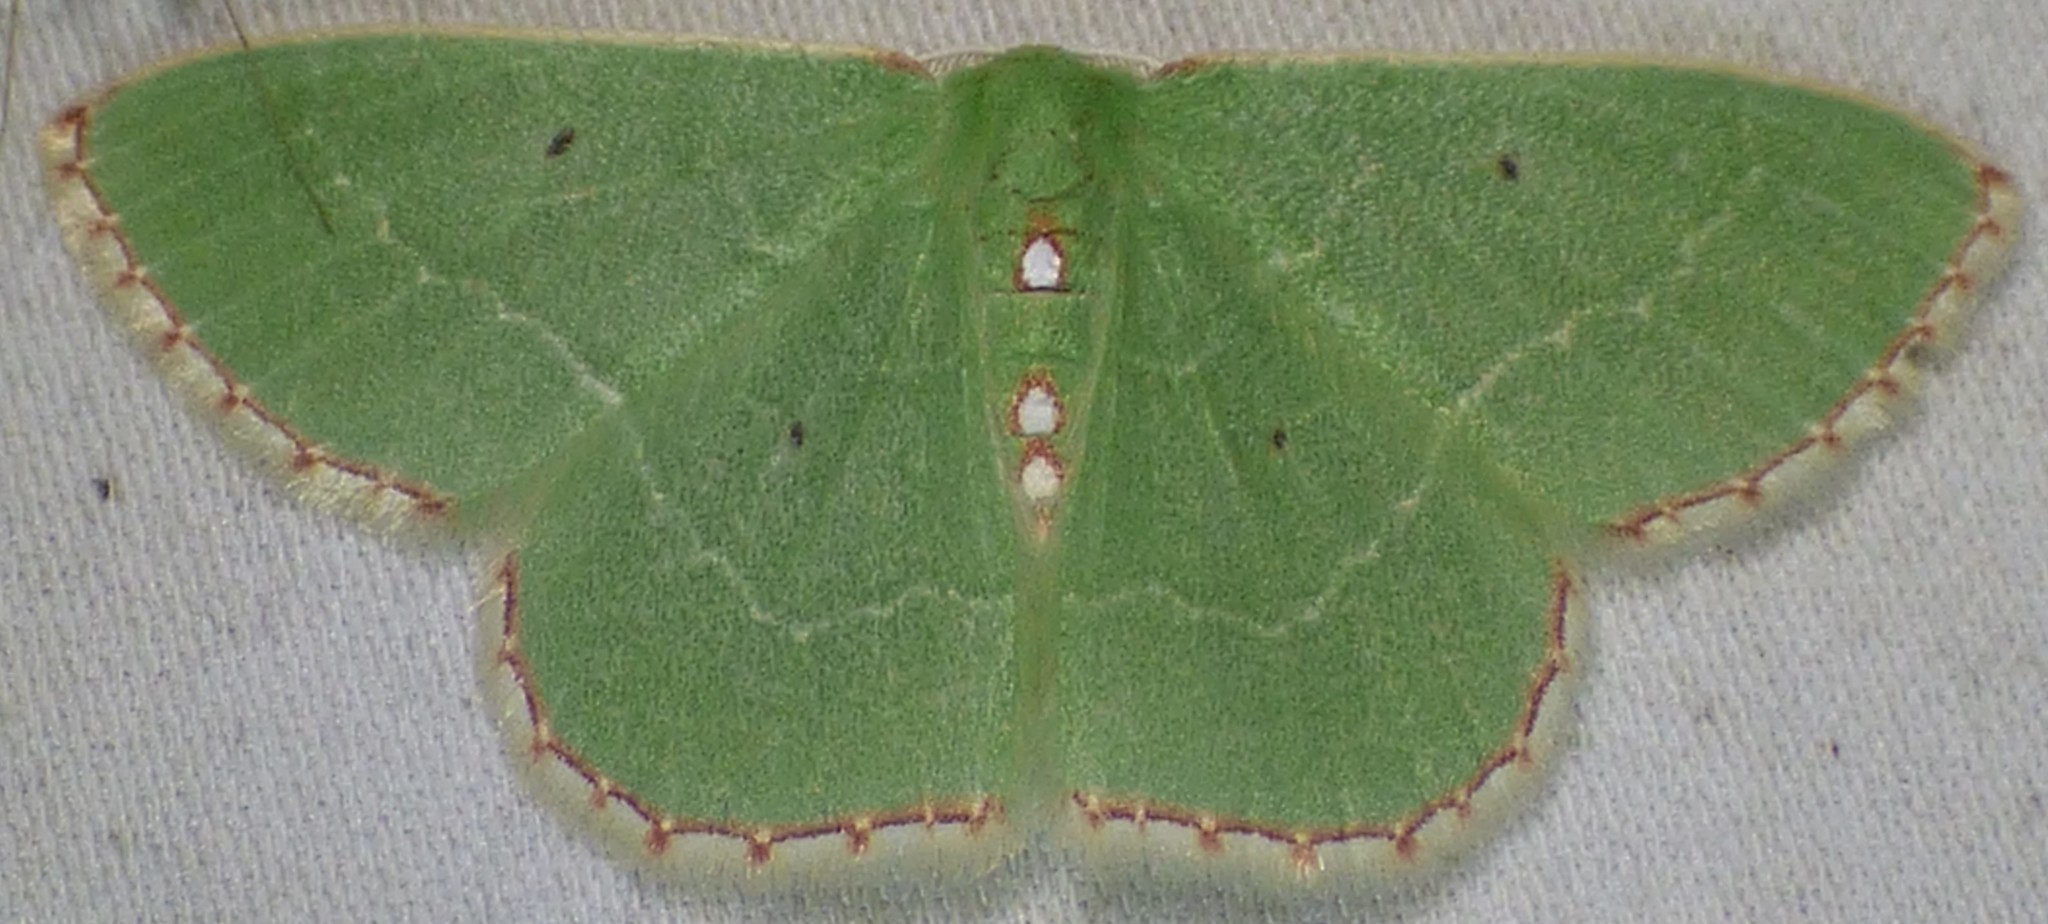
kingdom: Animalia
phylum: Arthropoda
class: Insecta
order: Lepidoptera
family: Geometridae
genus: Nemoria
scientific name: Nemoria lixaria
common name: Red-bordered emerald
